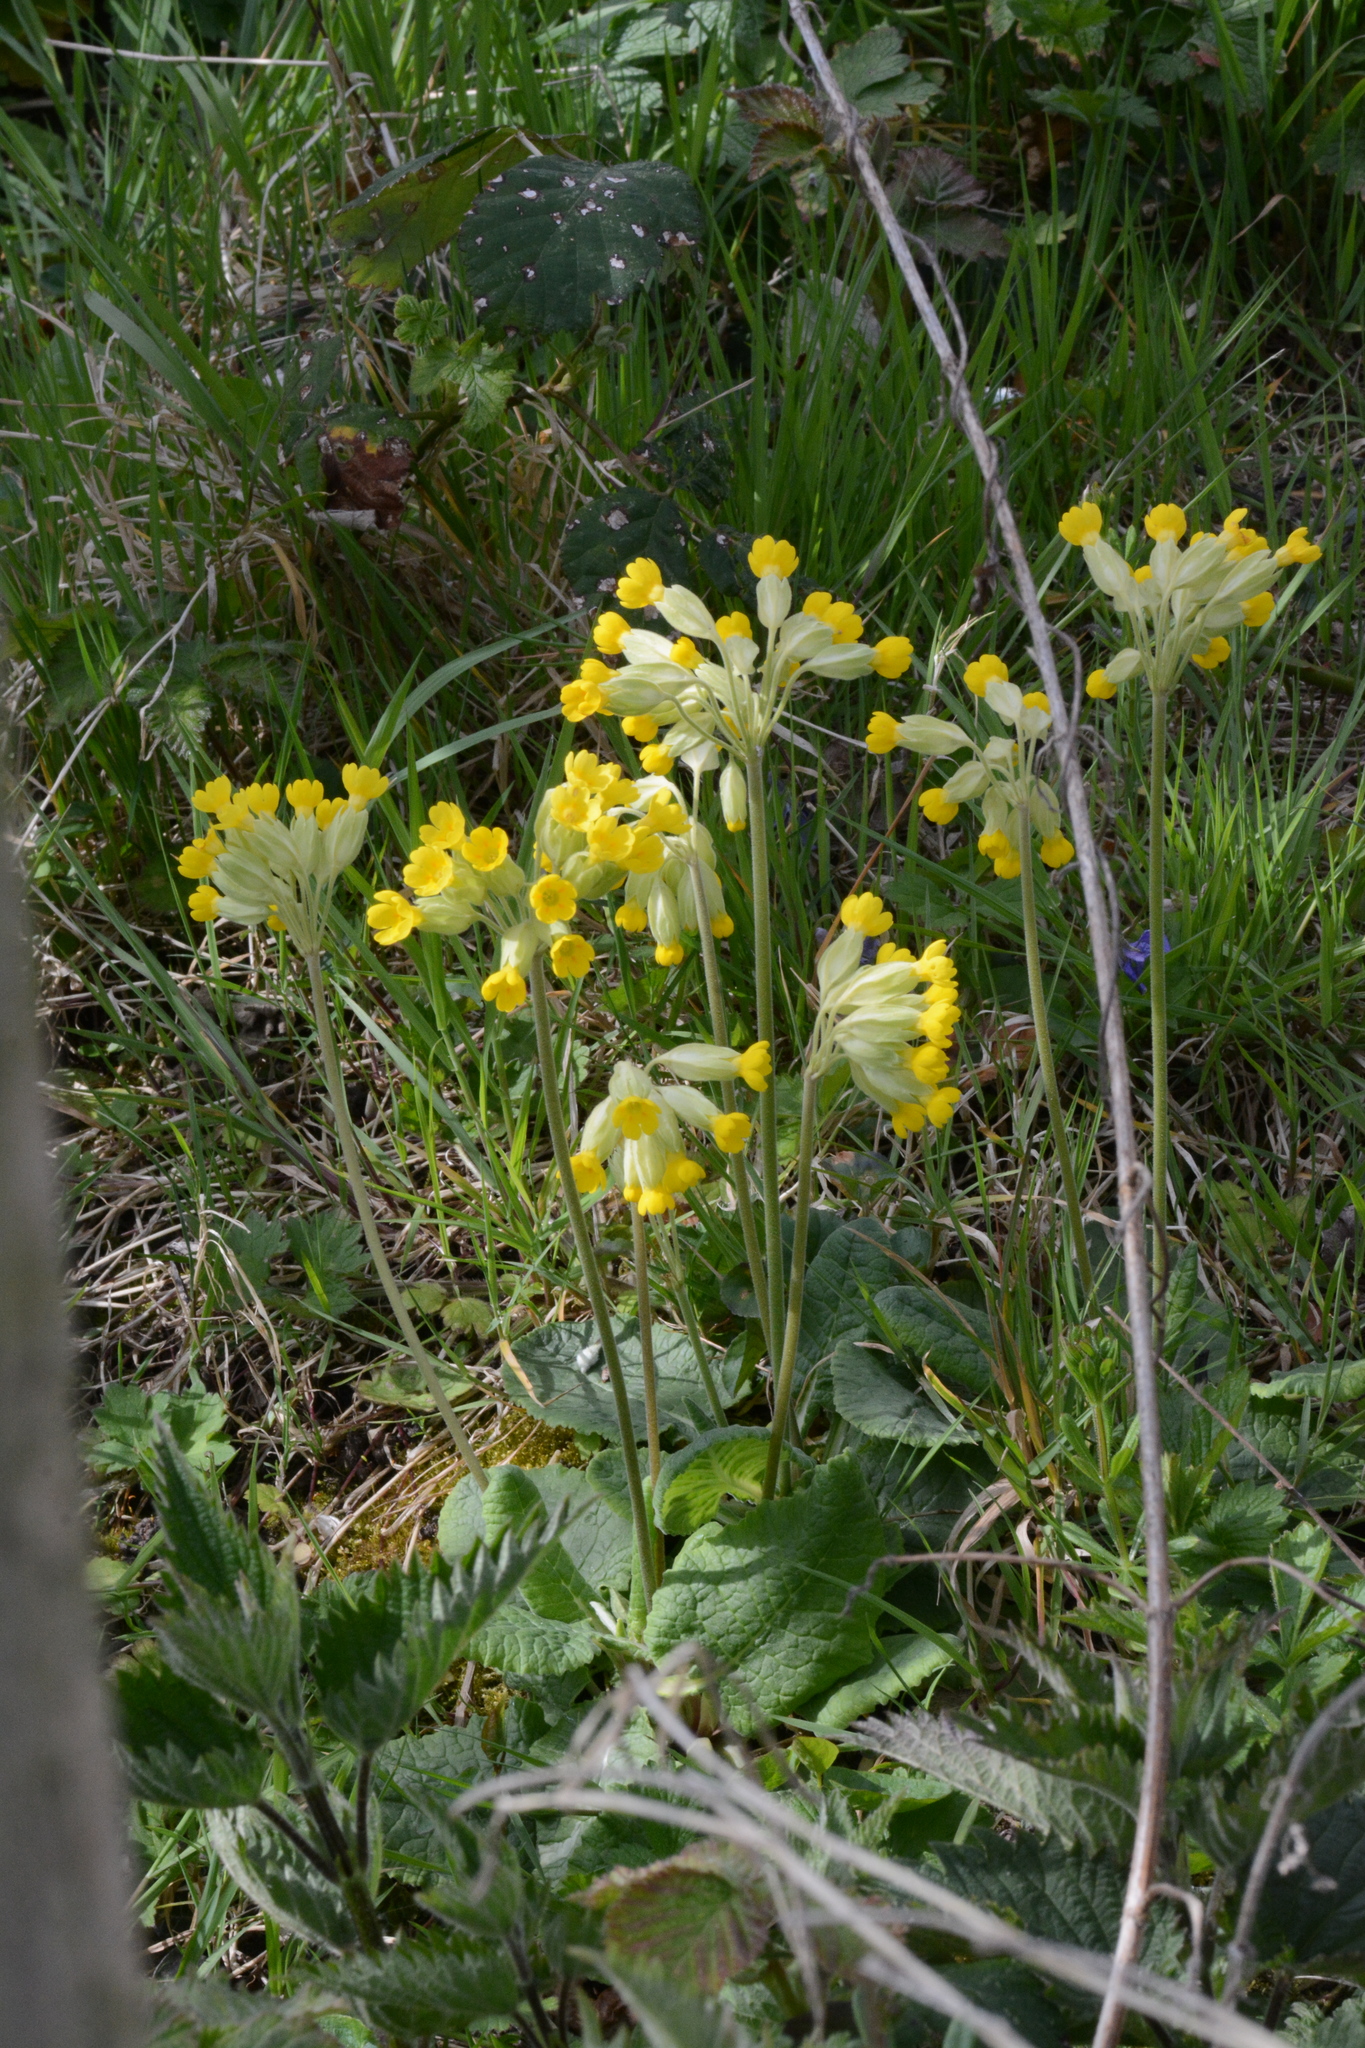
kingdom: Plantae
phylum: Tracheophyta
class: Magnoliopsida
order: Ericales
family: Primulaceae
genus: Primula
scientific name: Primula veris
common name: Cowslip
